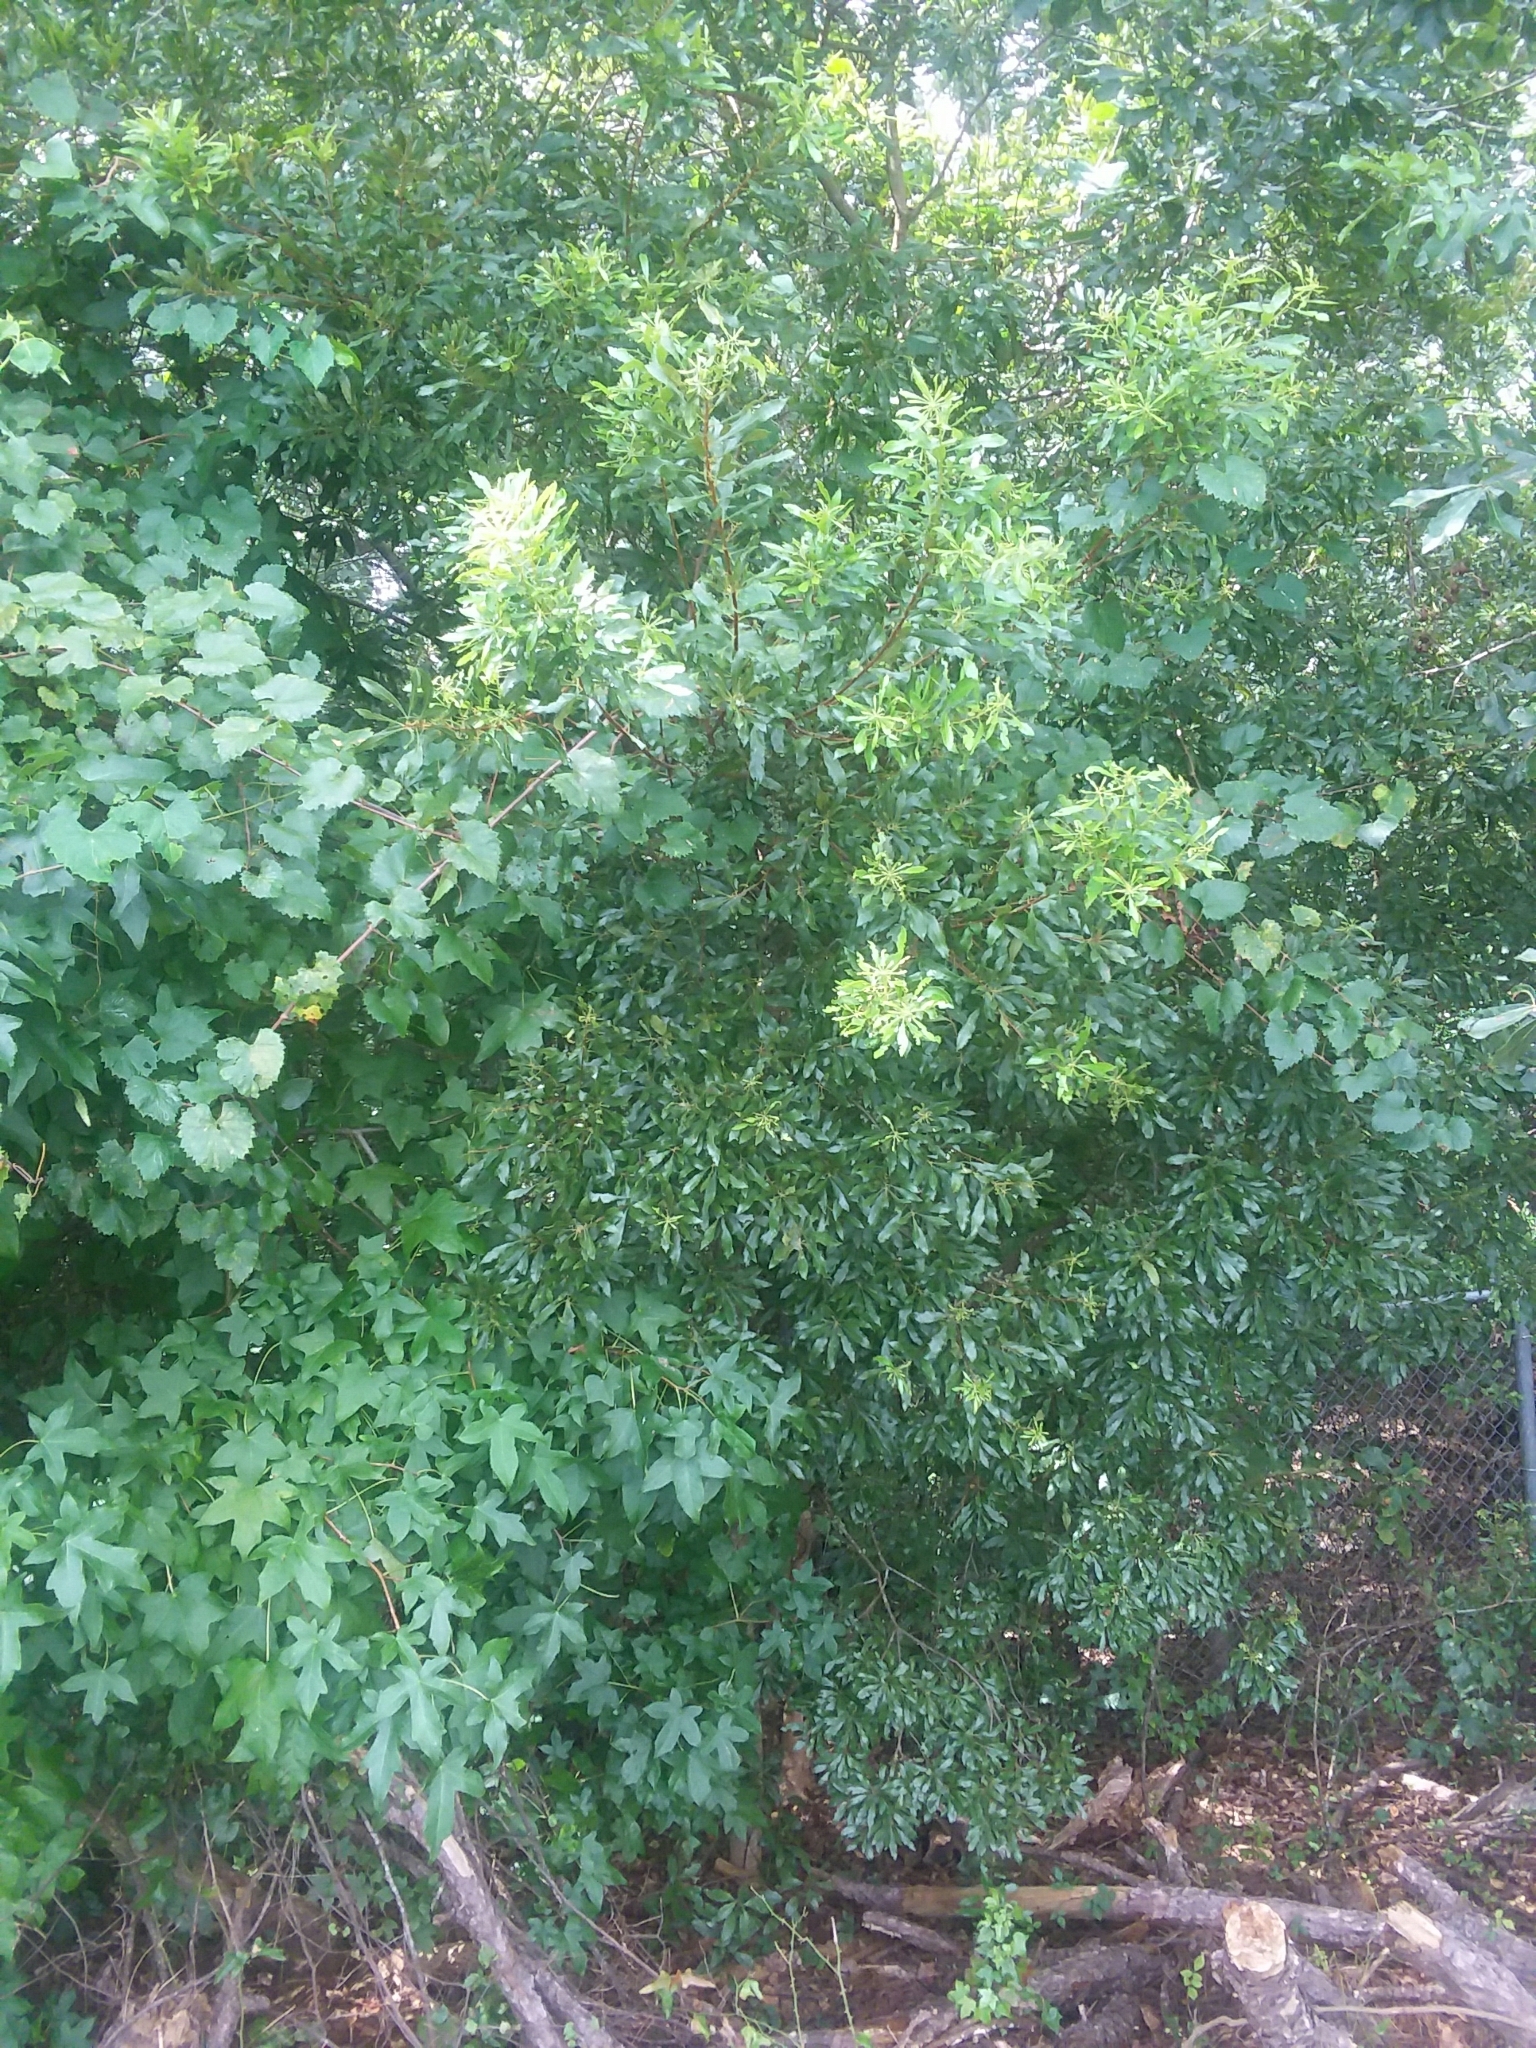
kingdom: Plantae
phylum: Tracheophyta
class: Magnoliopsida
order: Fagales
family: Myricaceae
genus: Morella
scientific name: Morella cerifera
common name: Wax myrtle
